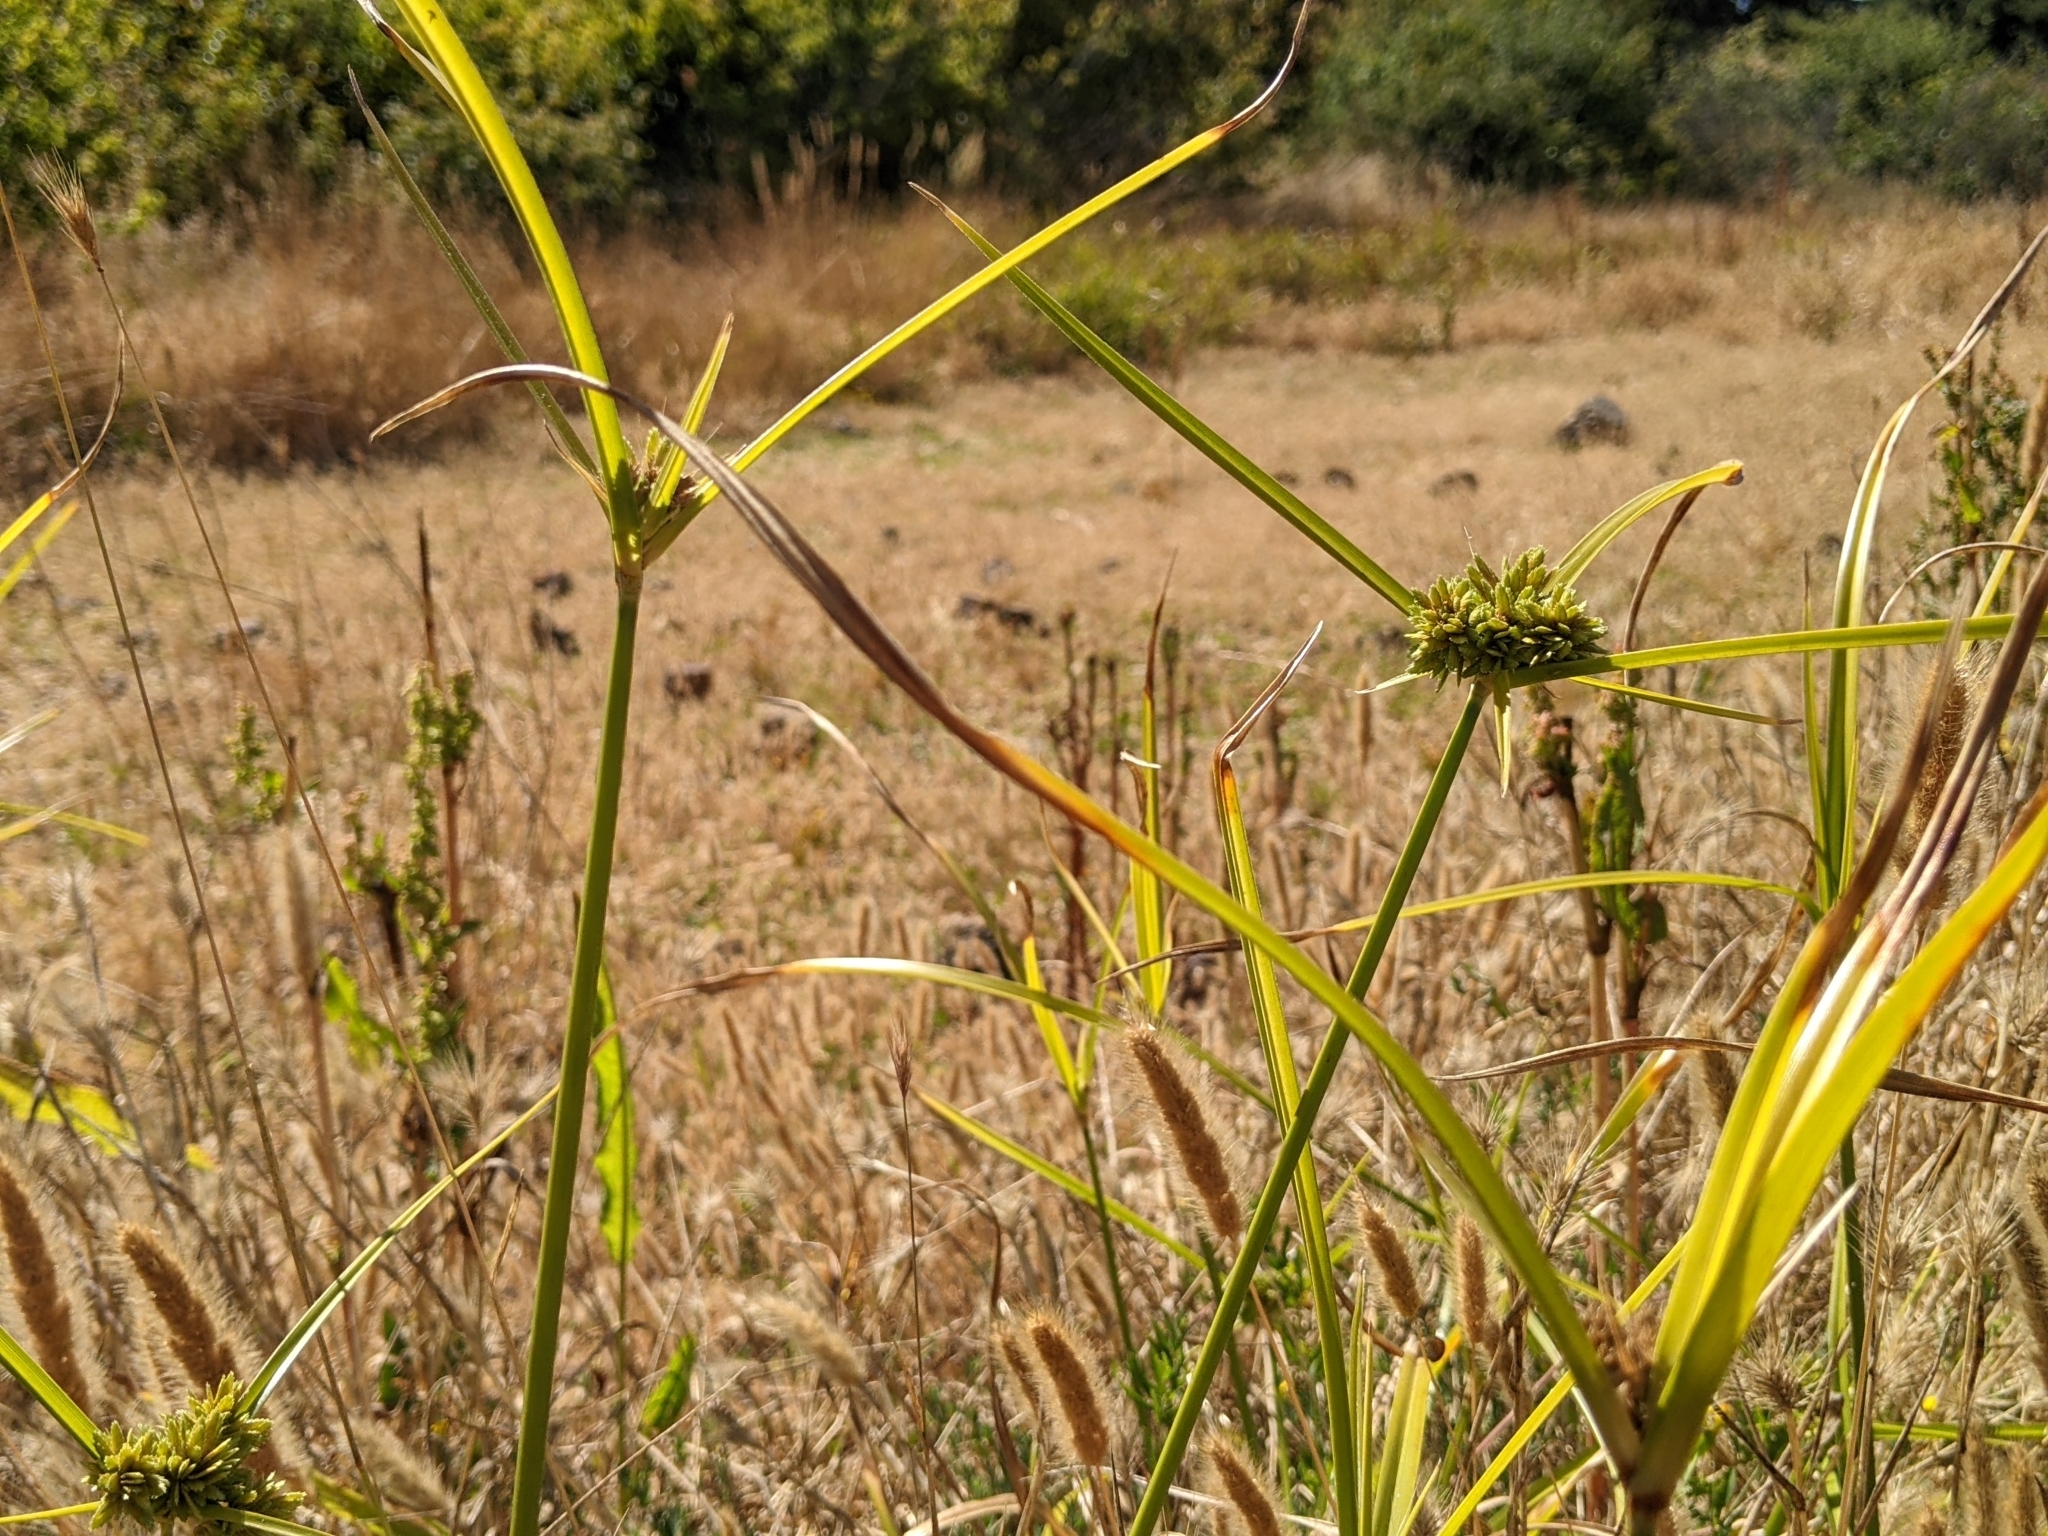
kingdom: Plantae
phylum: Tracheophyta
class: Liliopsida
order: Poales
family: Cyperaceae
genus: Cyperus
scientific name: Cyperus eragrostis
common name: Tall flatsedge
